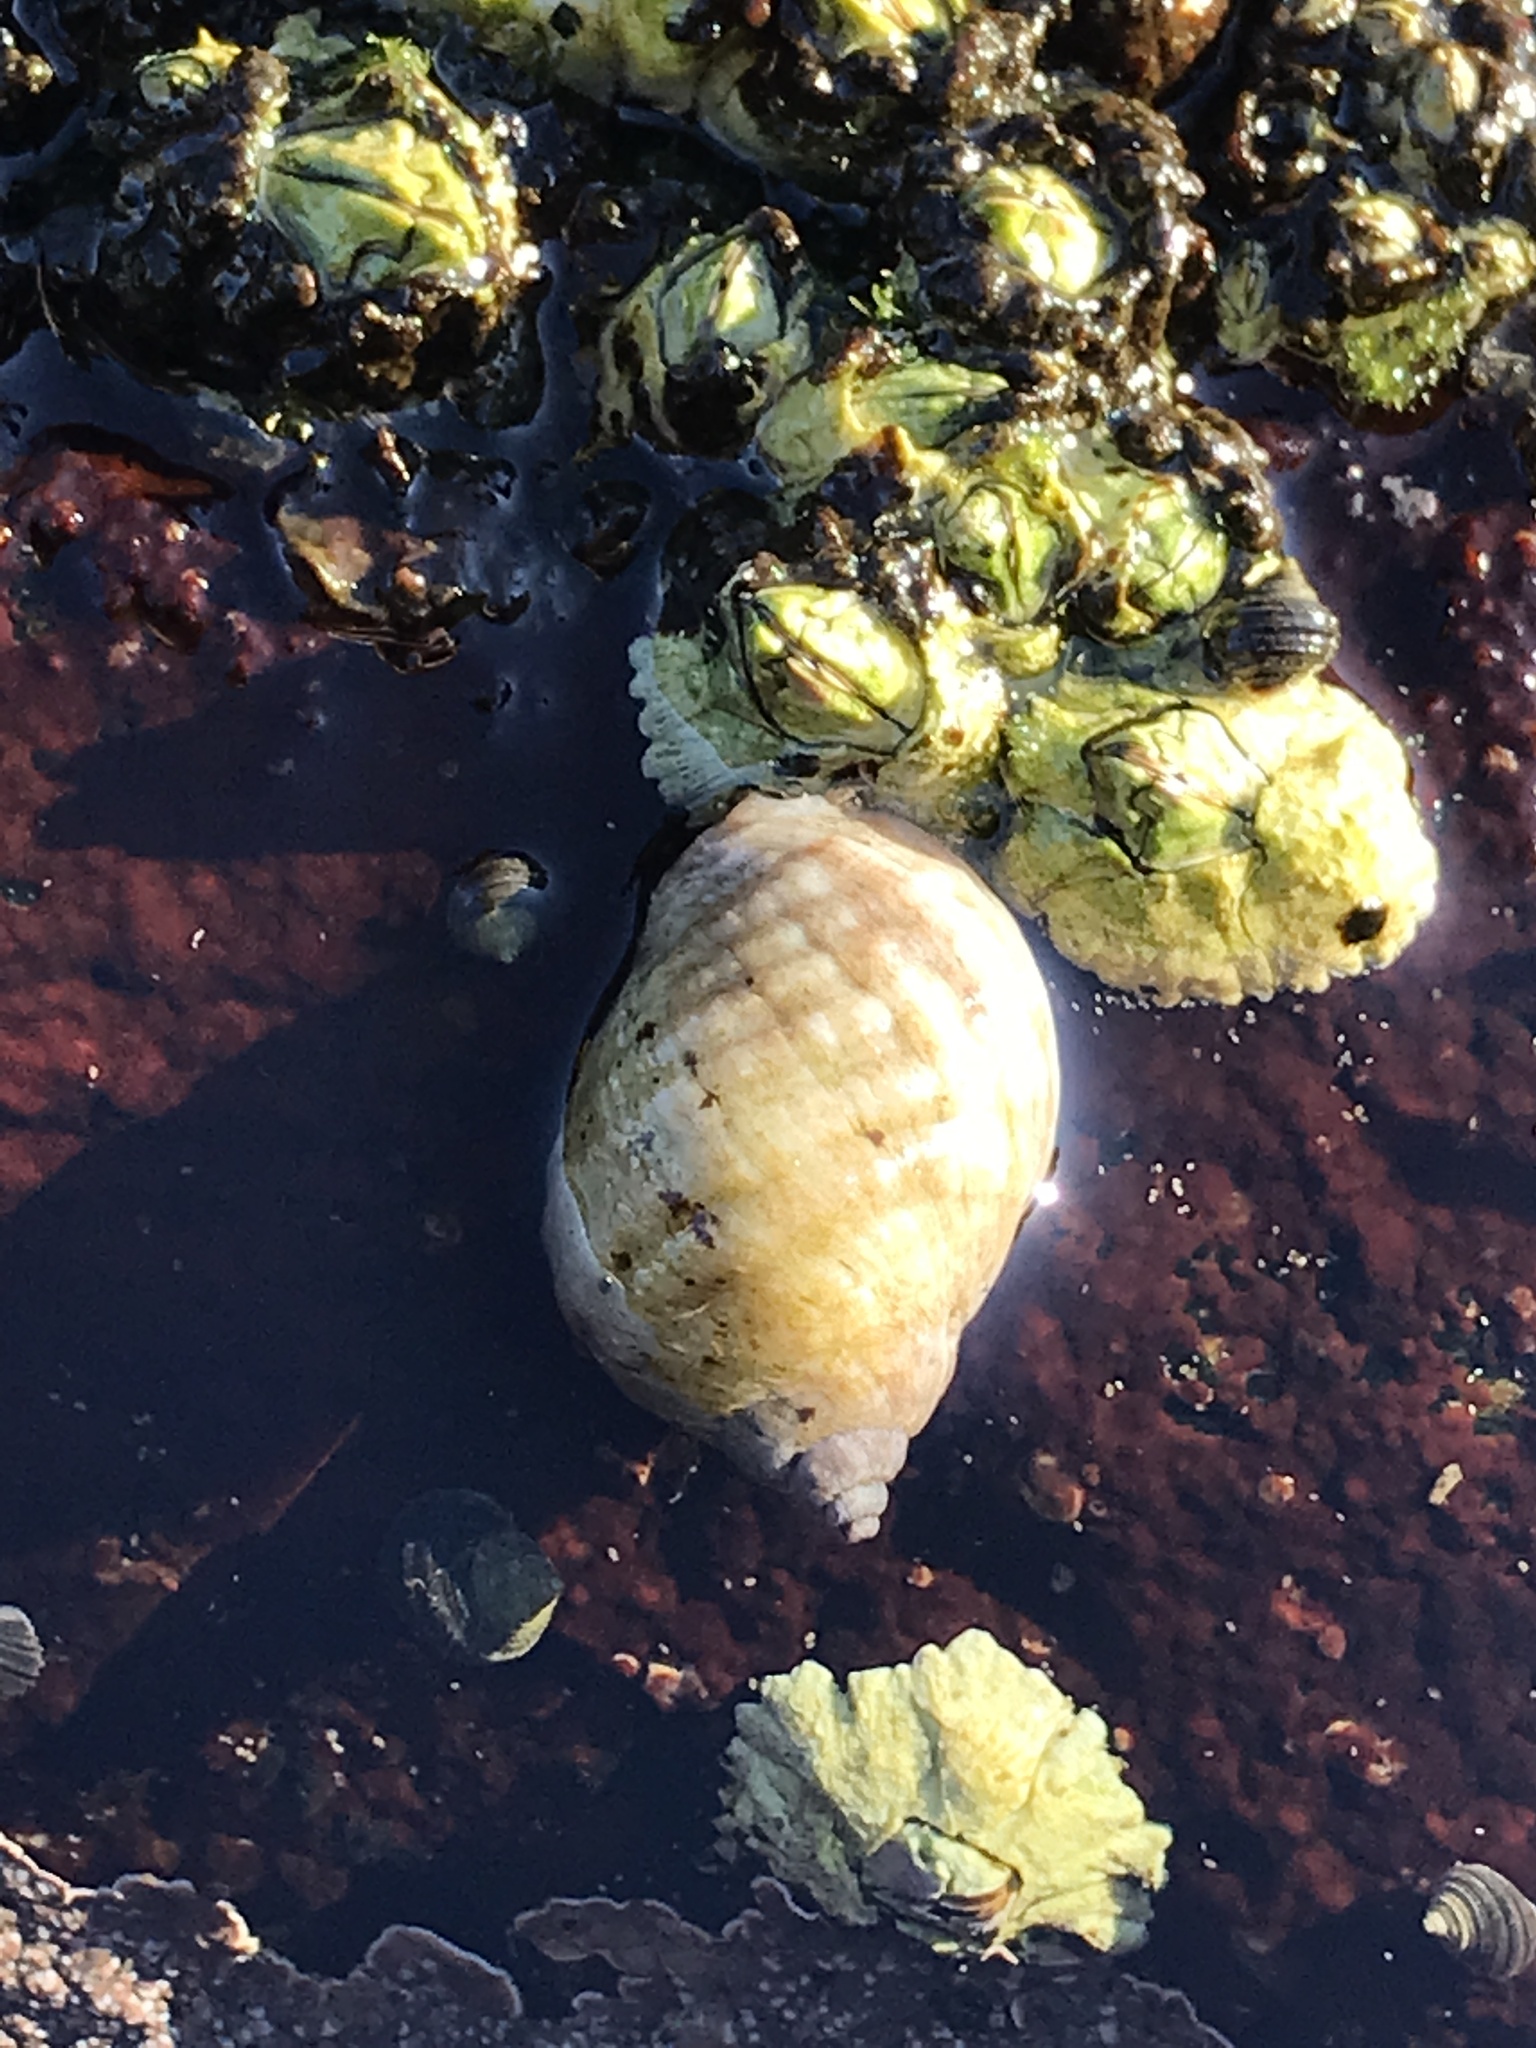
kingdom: Animalia
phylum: Mollusca
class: Gastropoda
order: Neogastropoda
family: Muricidae
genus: Nucella
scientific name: Nucella lapillus
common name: Dog whelk
